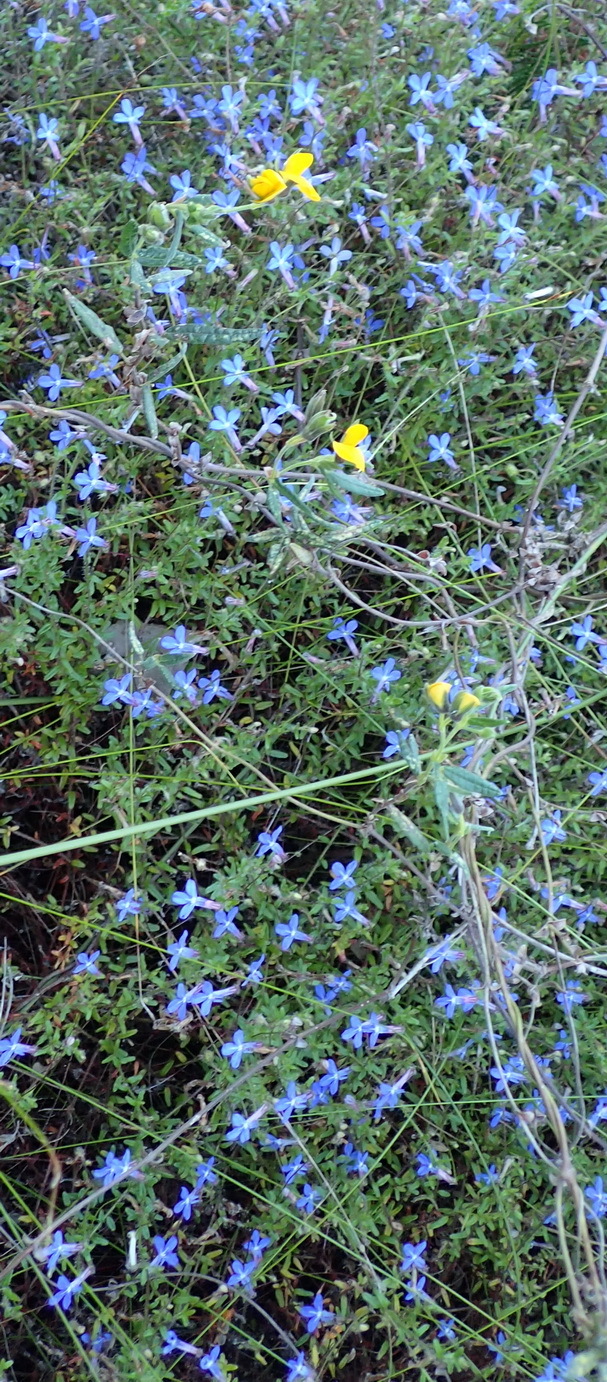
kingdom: Plantae
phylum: Tracheophyta
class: Magnoliopsida
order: Fabales
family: Fabaceae
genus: Rhynchosia
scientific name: Rhynchosia chrysoscias
